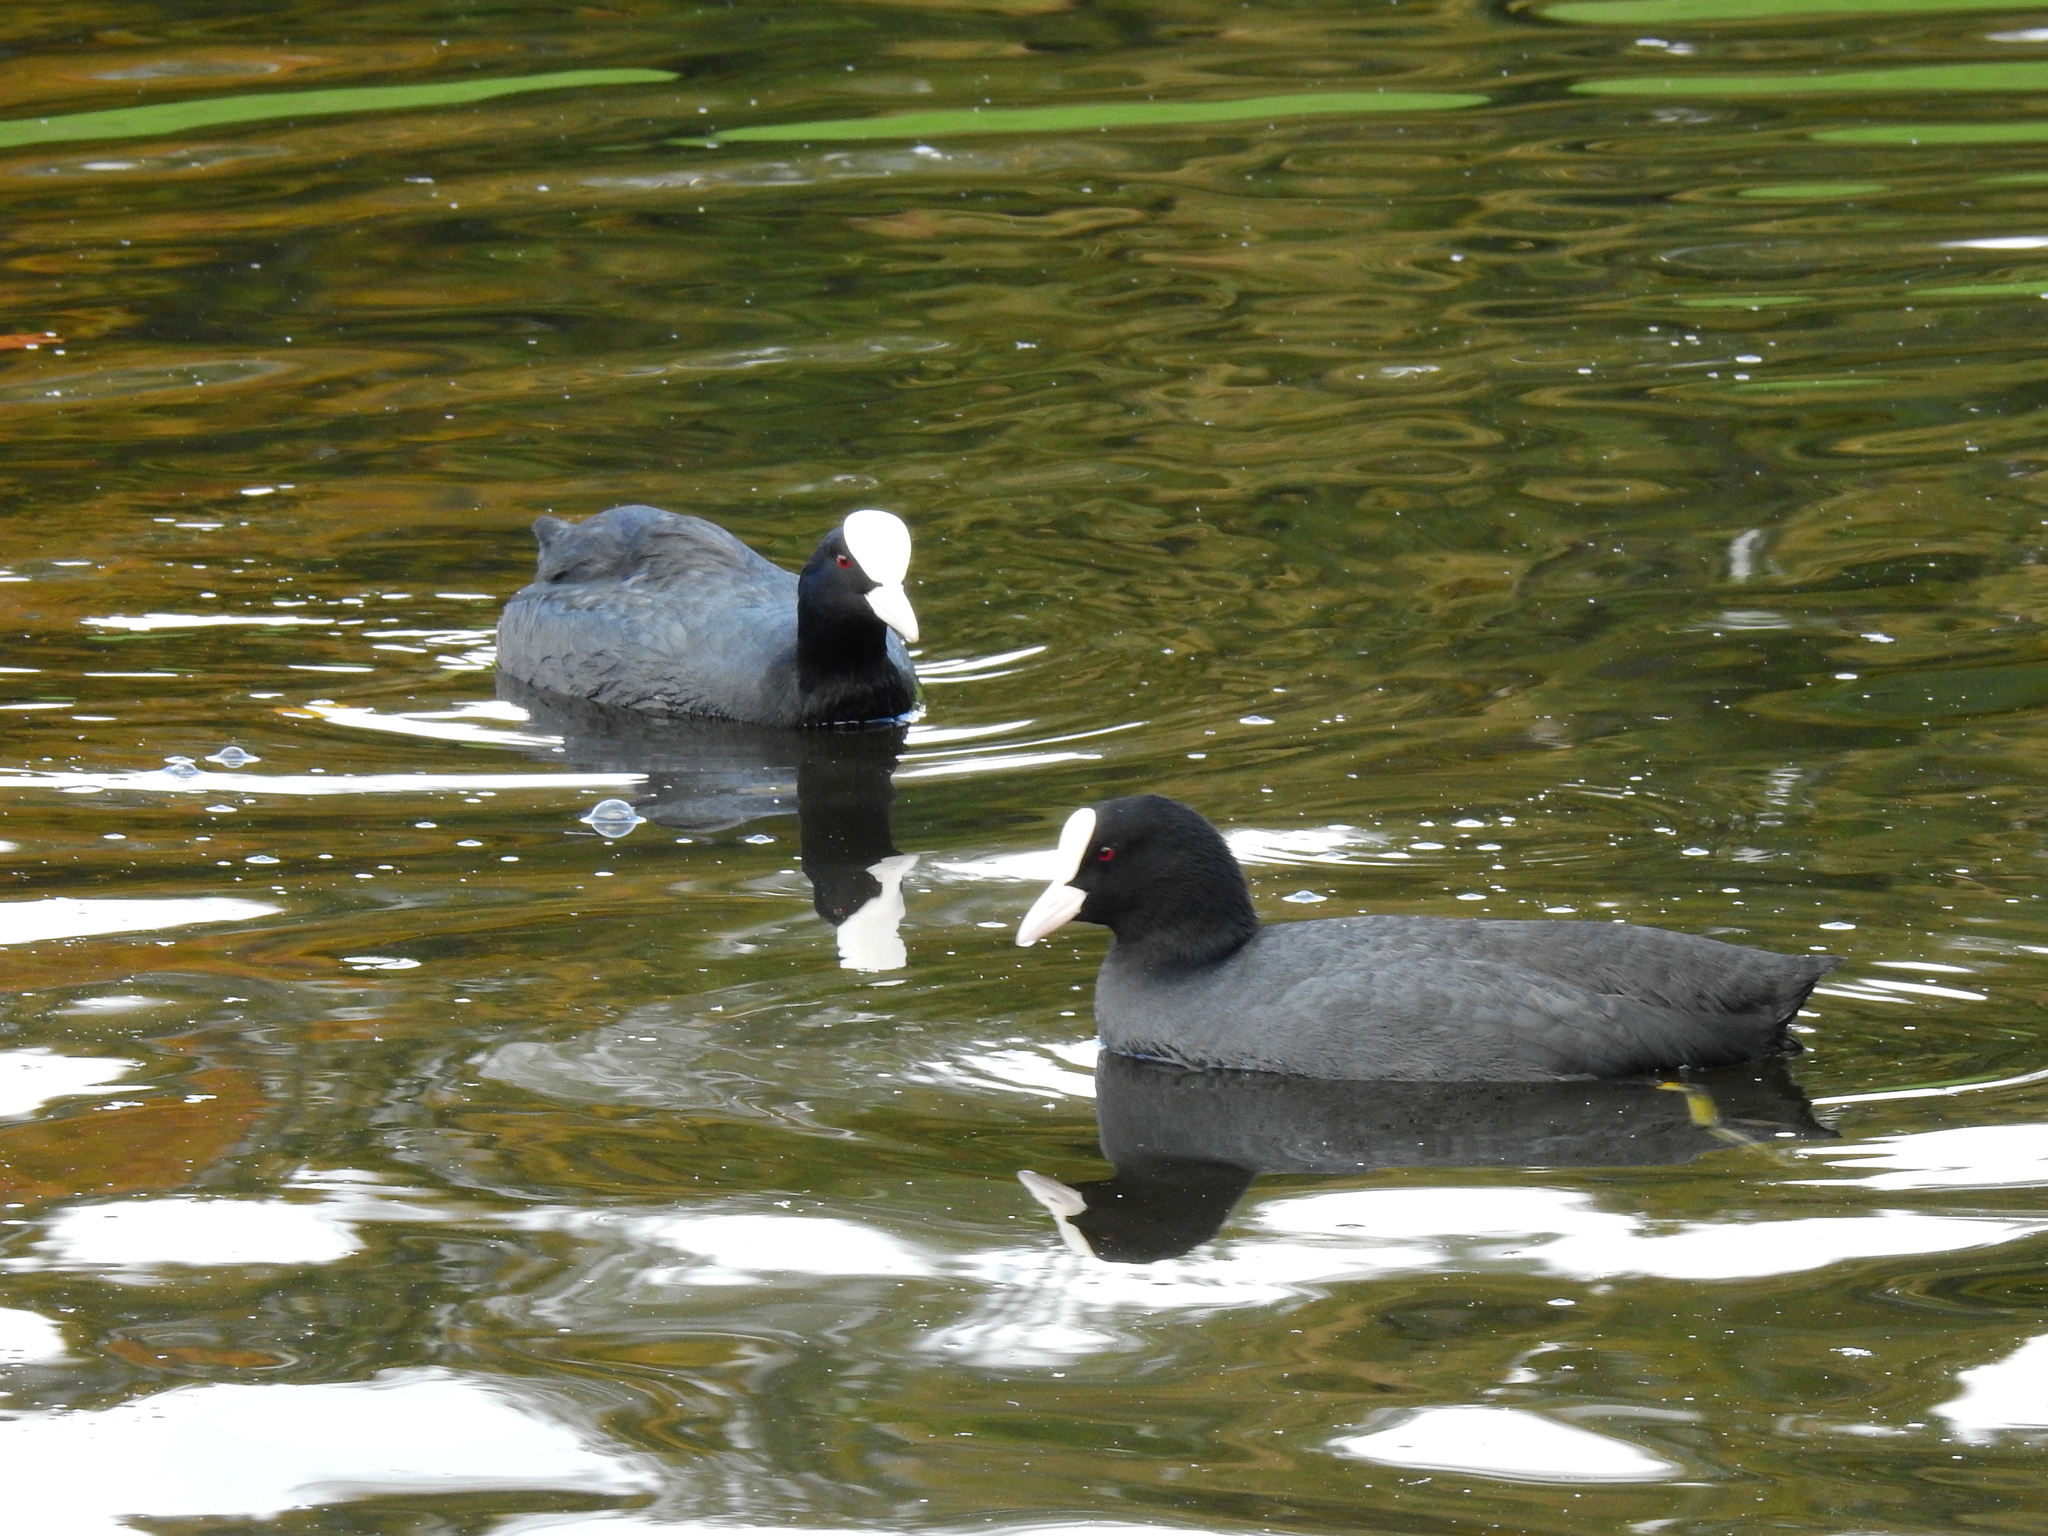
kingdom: Animalia
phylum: Chordata
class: Aves
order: Gruiformes
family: Rallidae
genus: Fulica
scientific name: Fulica atra
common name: Eurasian coot
